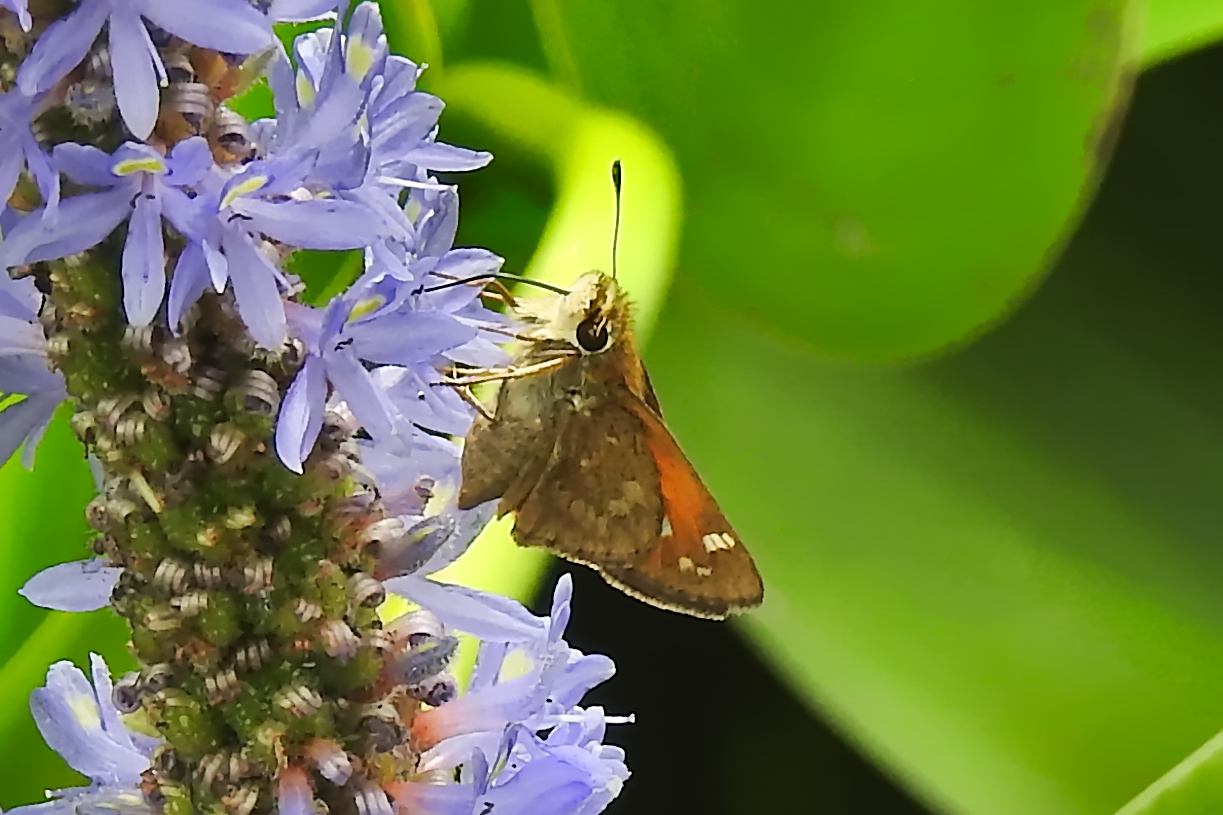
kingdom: Animalia
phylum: Arthropoda
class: Insecta
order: Lepidoptera
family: Hesperiidae
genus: Atalopedes
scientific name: Atalopedes
